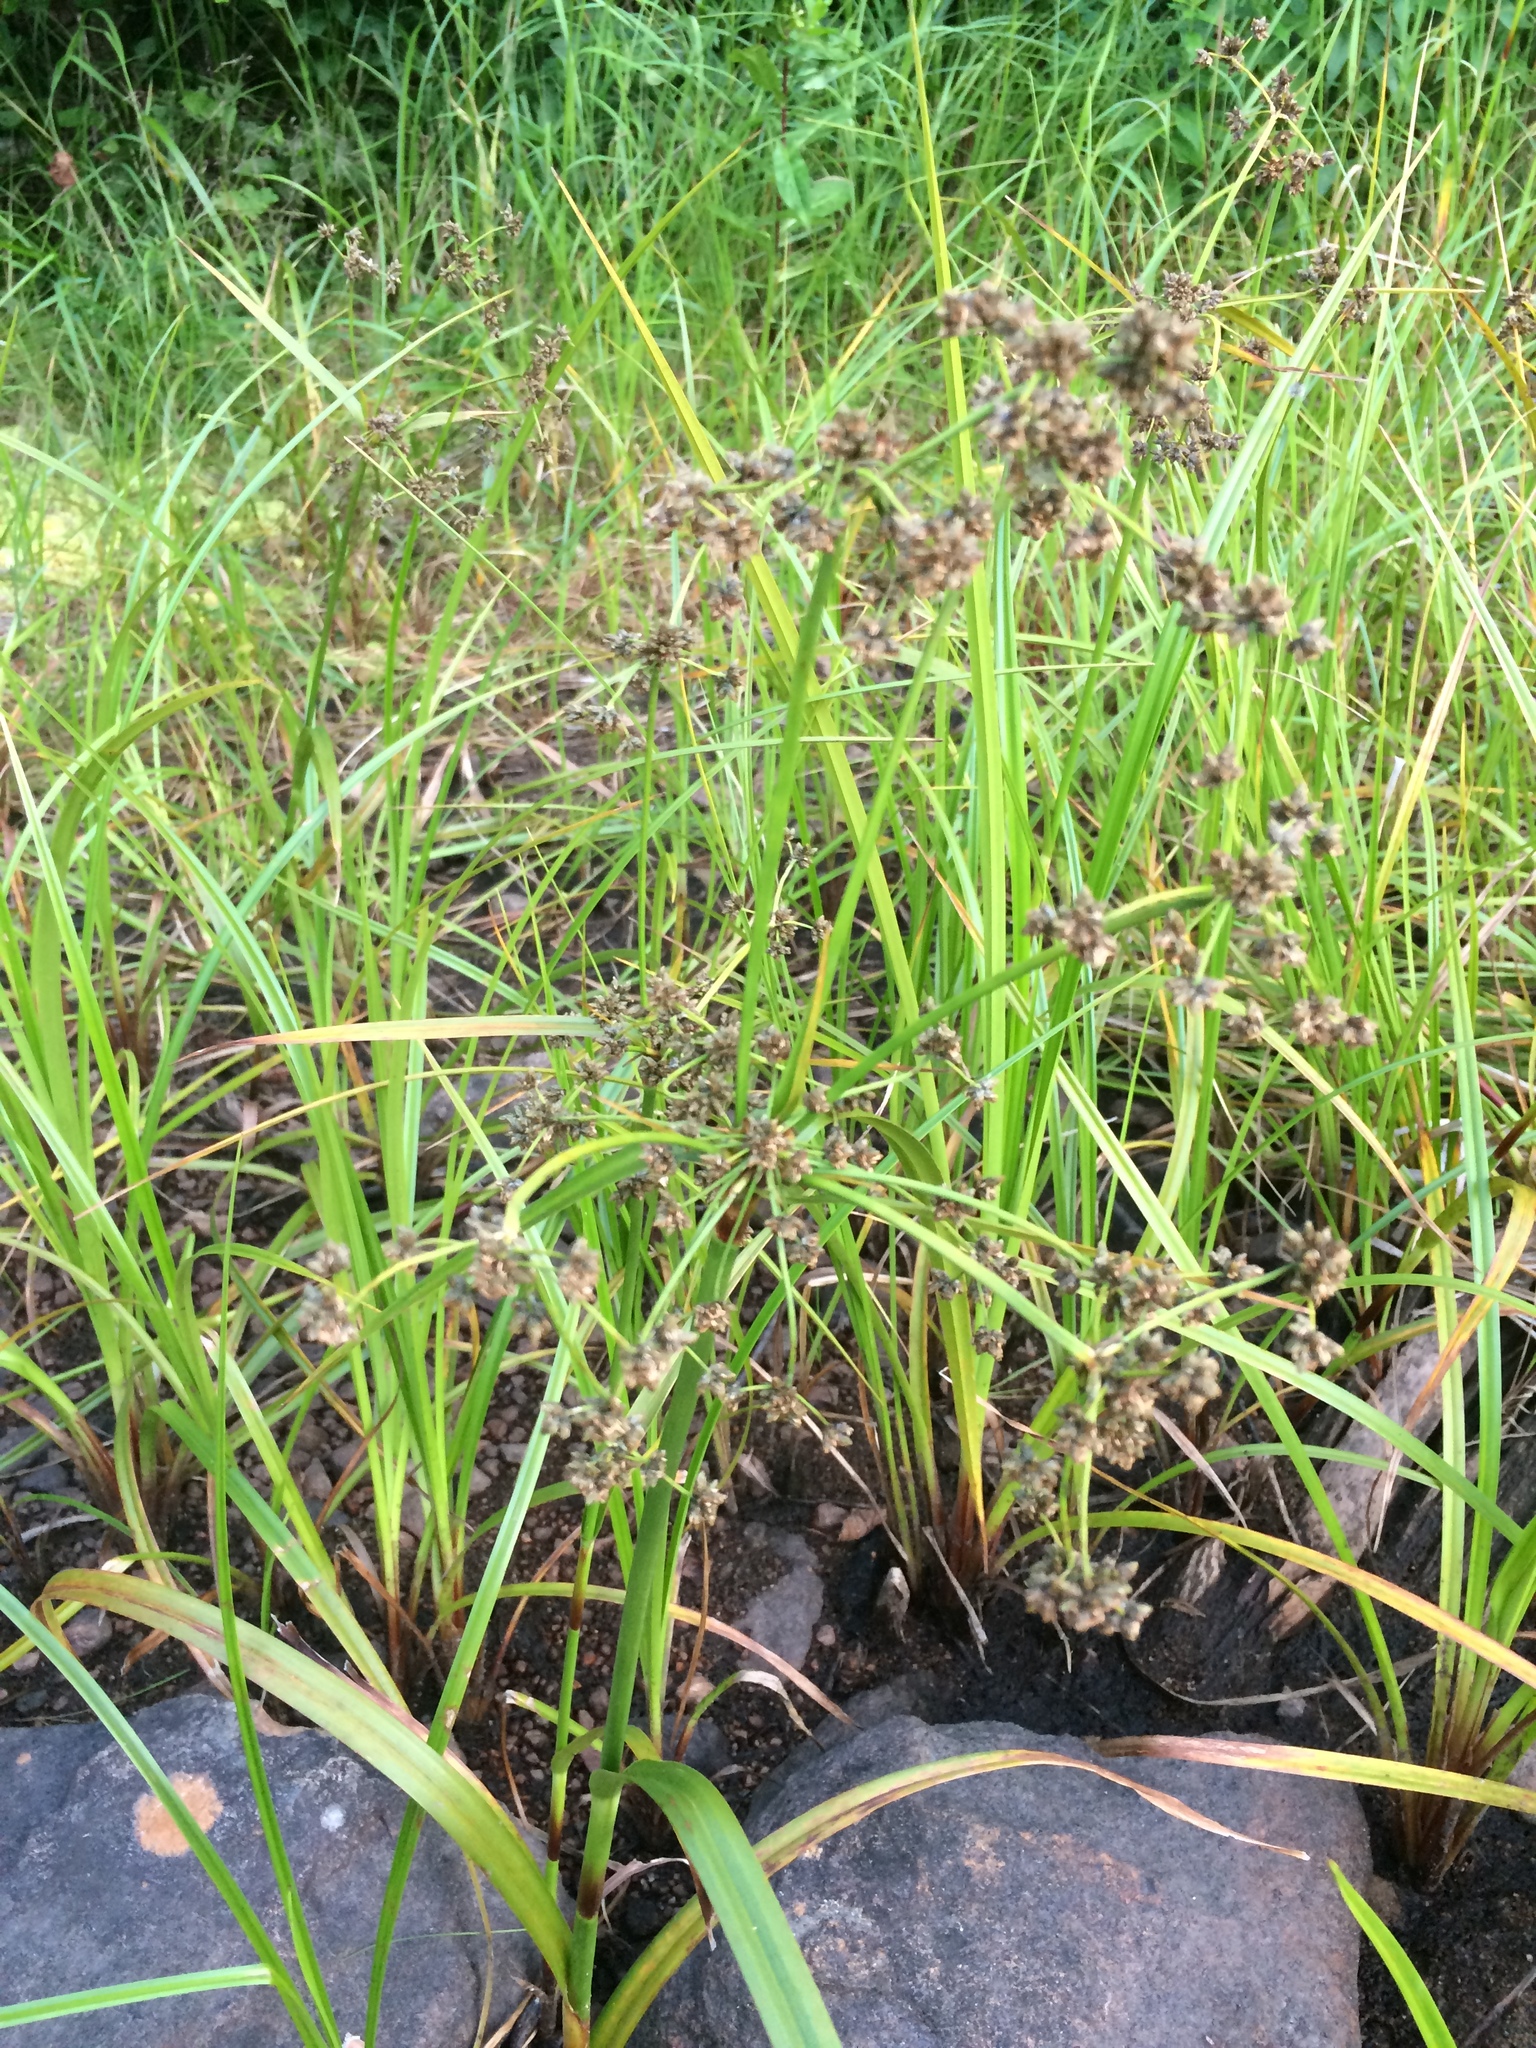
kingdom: Plantae
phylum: Tracheophyta
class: Liliopsida
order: Poales
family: Cyperaceae
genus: Scirpus
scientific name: Scirpus microcarpus
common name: Panicled bulrush
